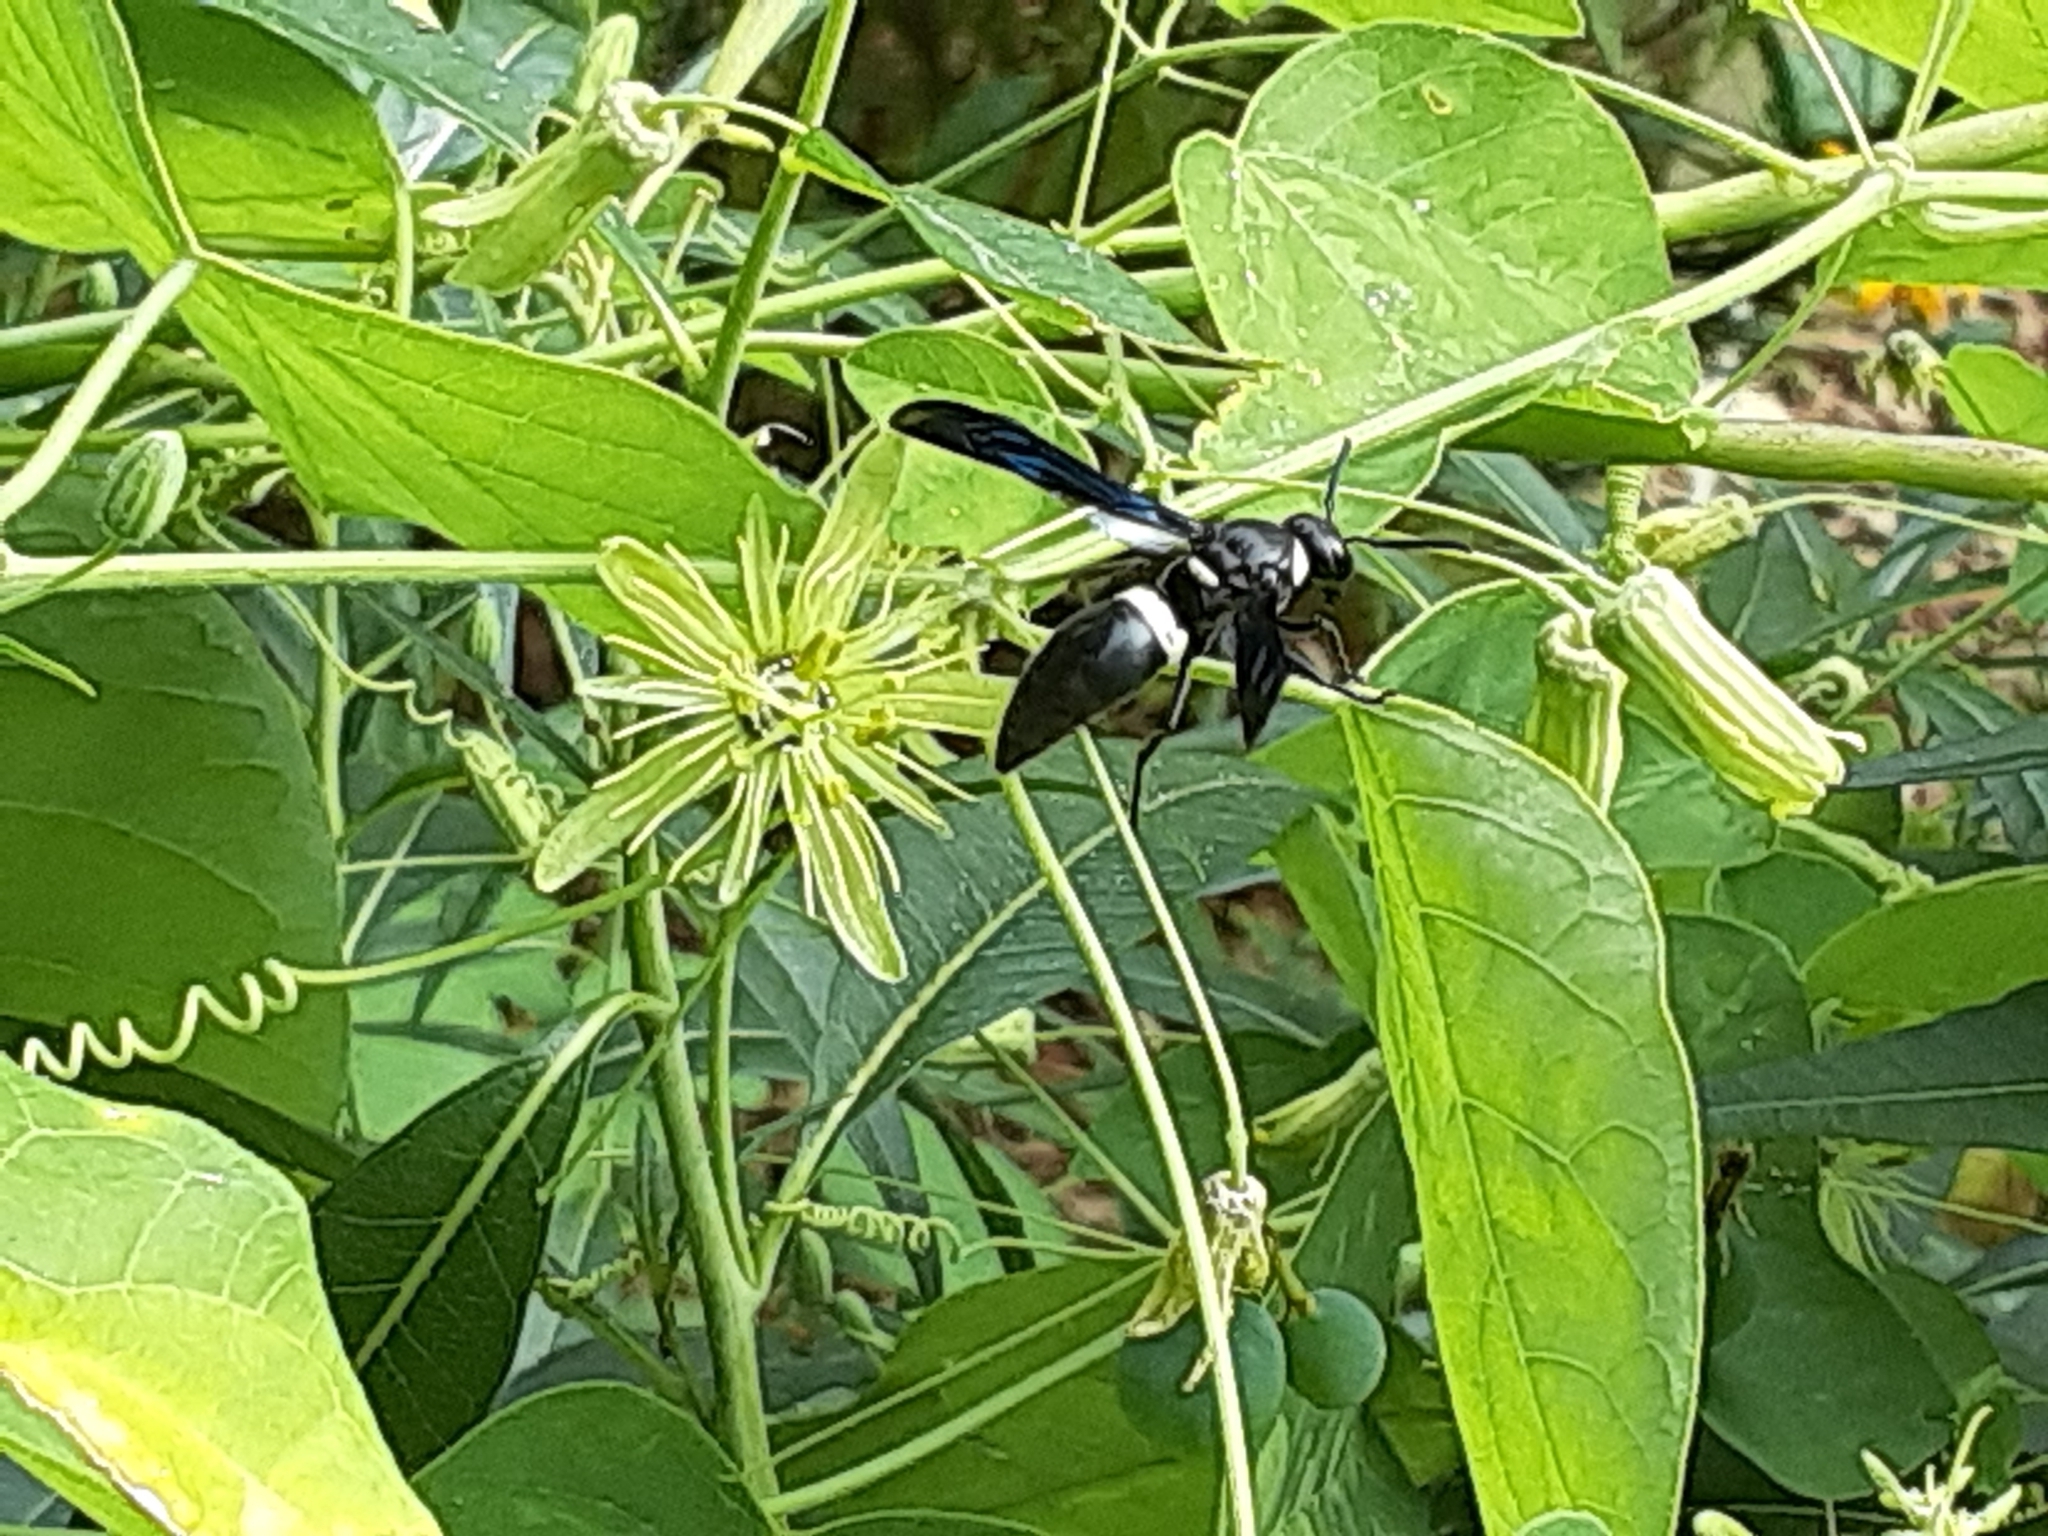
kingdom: Animalia
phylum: Arthropoda
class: Insecta
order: Hymenoptera
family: Eumenidae
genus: Monobia
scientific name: Monobia quadridens
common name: Four-toothed mason wasp
